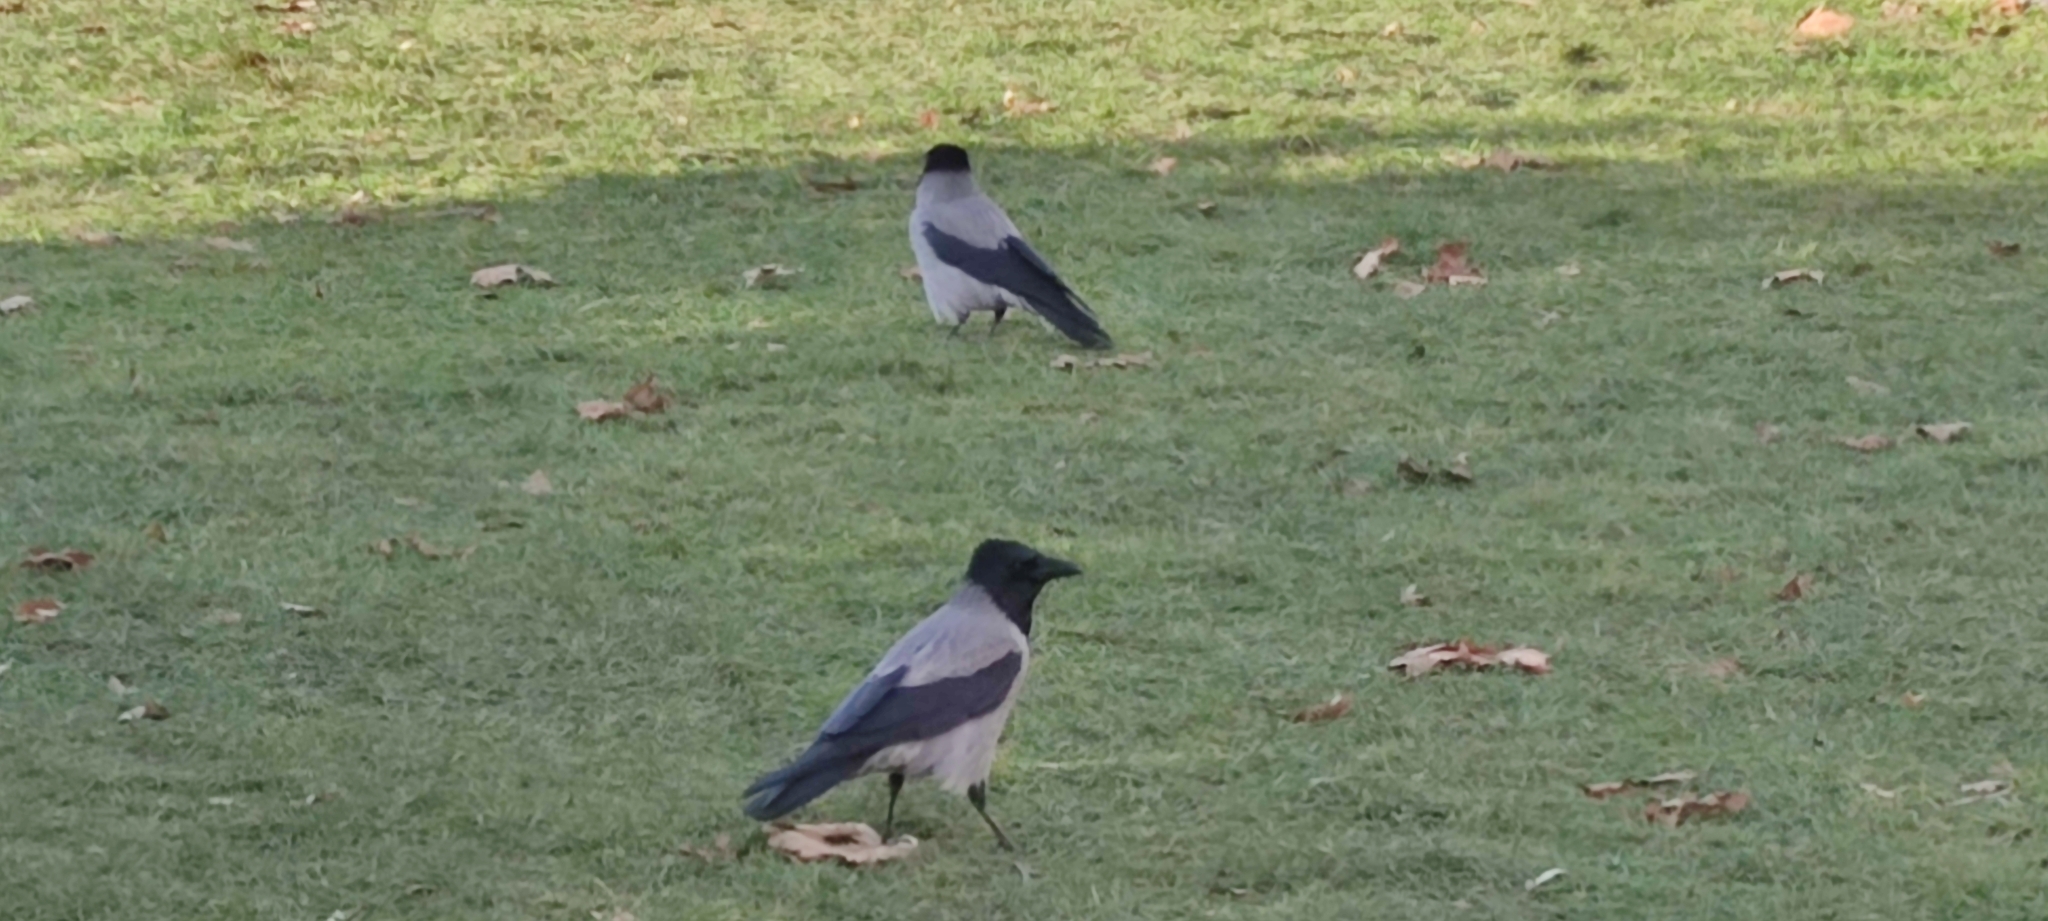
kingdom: Animalia
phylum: Chordata
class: Aves
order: Passeriformes
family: Corvidae
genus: Corvus
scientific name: Corvus cornix
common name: Hooded crow
